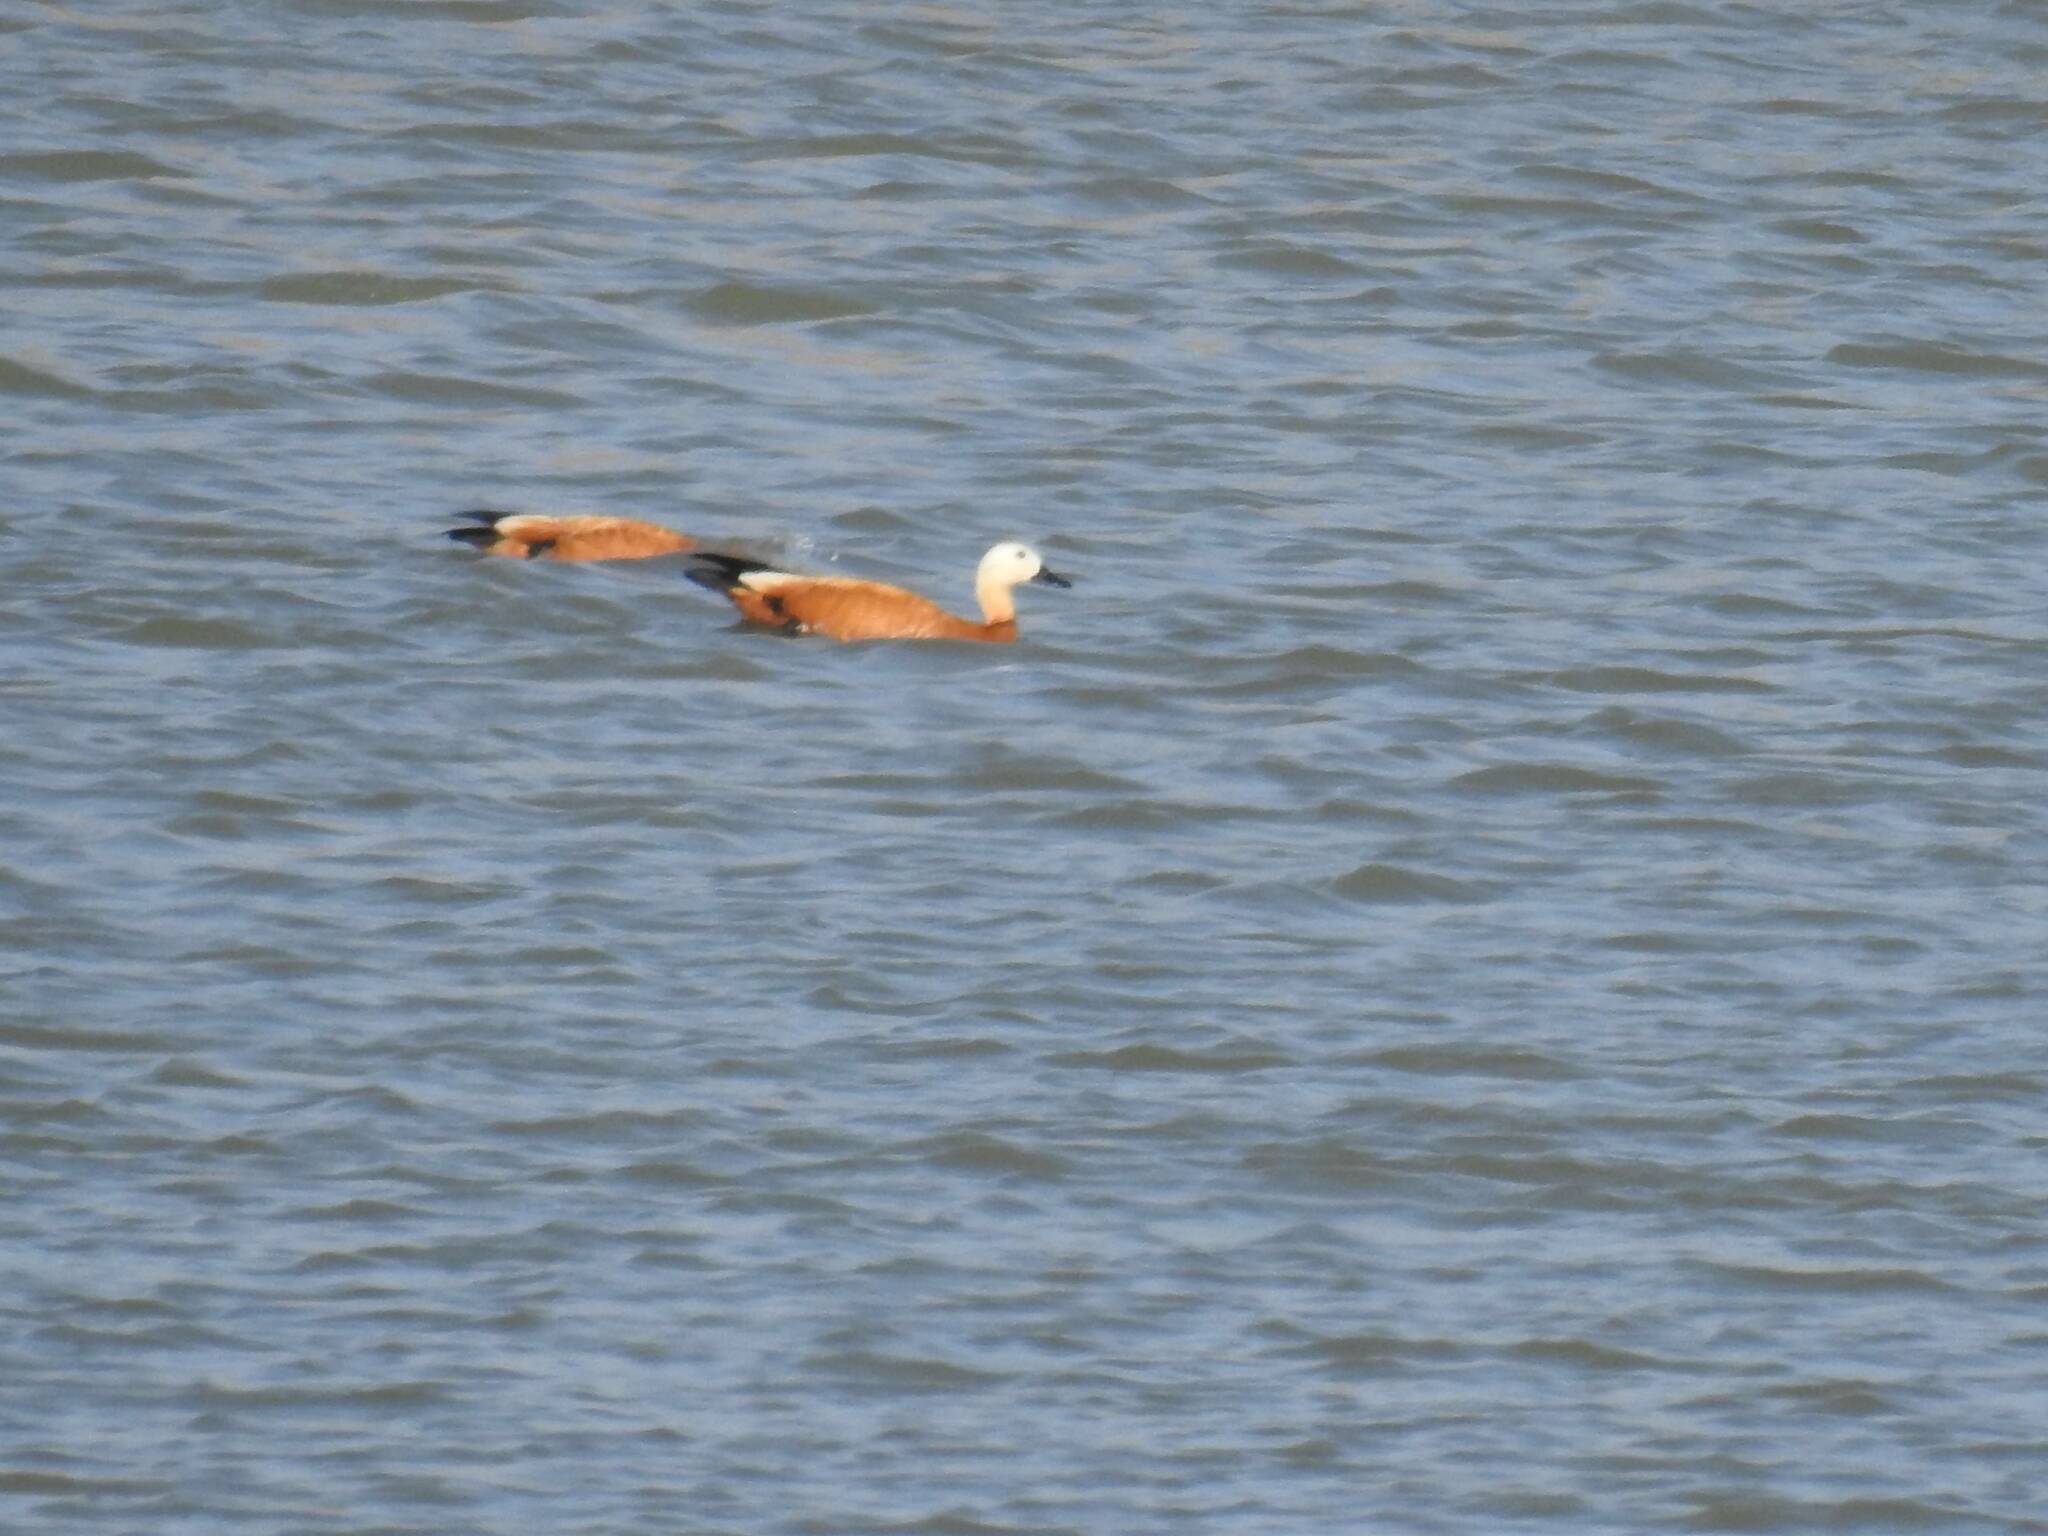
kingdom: Animalia
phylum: Chordata
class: Aves
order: Anseriformes
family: Anatidae
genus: Tadorna
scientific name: Tadorna ferruginea
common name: Ruddy shelduck
